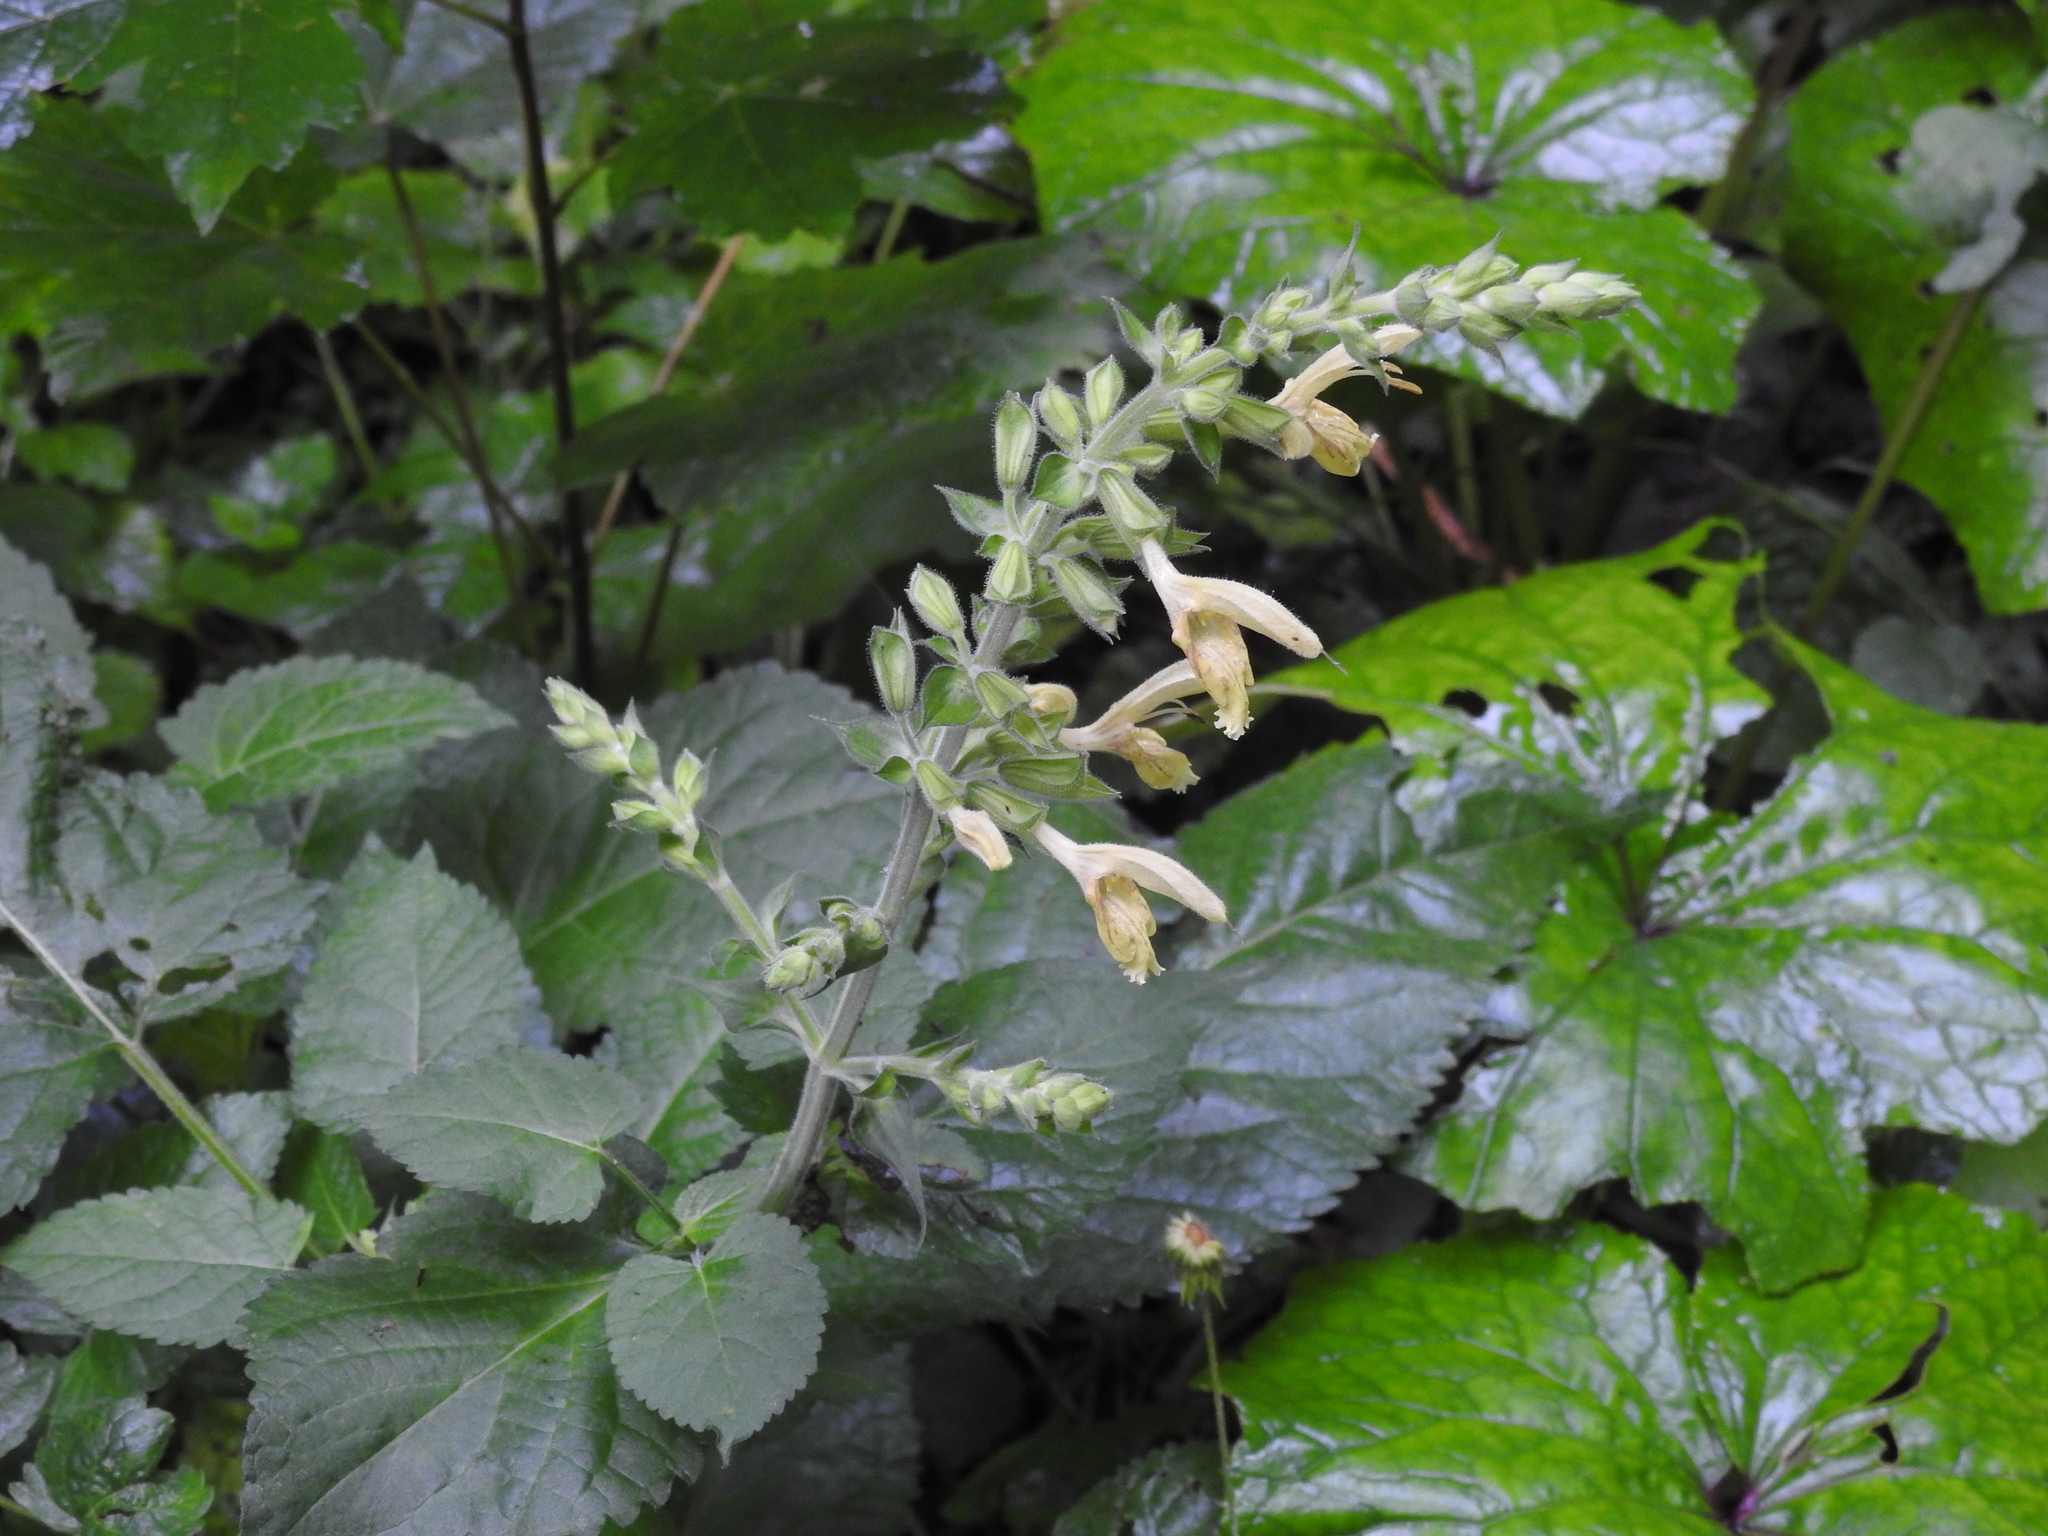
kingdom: Plantae
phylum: Tracheophyta
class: Magnoliopsida
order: Lamiales
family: Lamiaceae
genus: Salvia
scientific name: Salvia glutinosa
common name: Sticky clary
